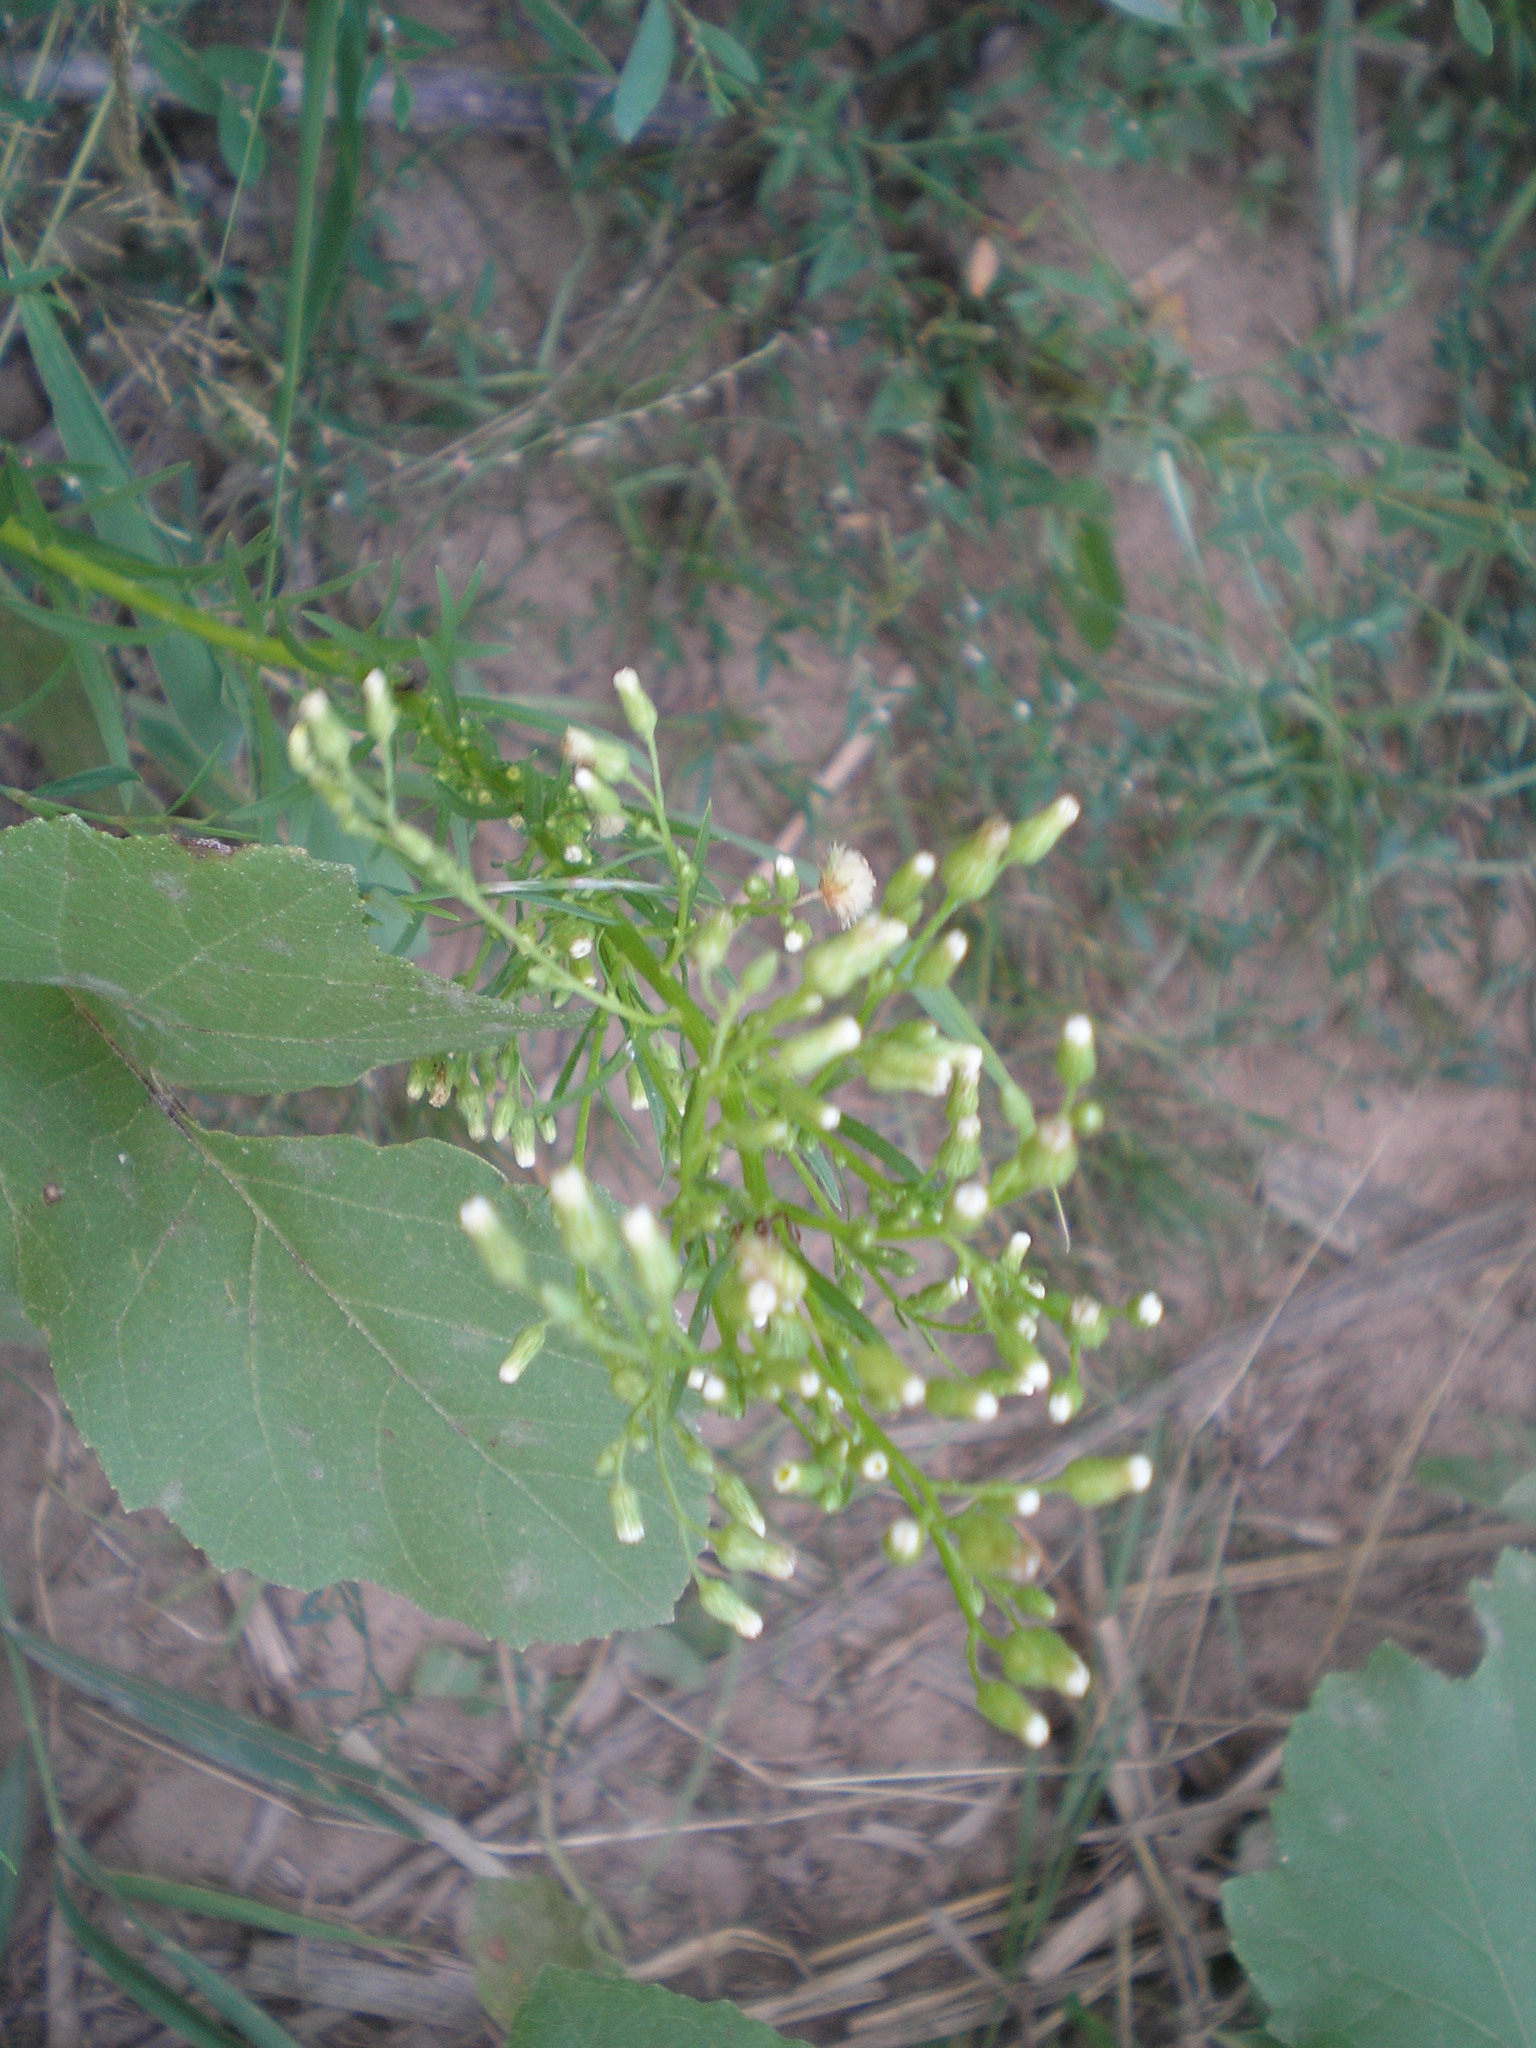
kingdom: Plantae
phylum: Tracheophyta
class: Magnoliopsida
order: Asterales
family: Asteraceae
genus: Erigeron
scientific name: Erigeron canadensis
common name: Canadian fleabane
